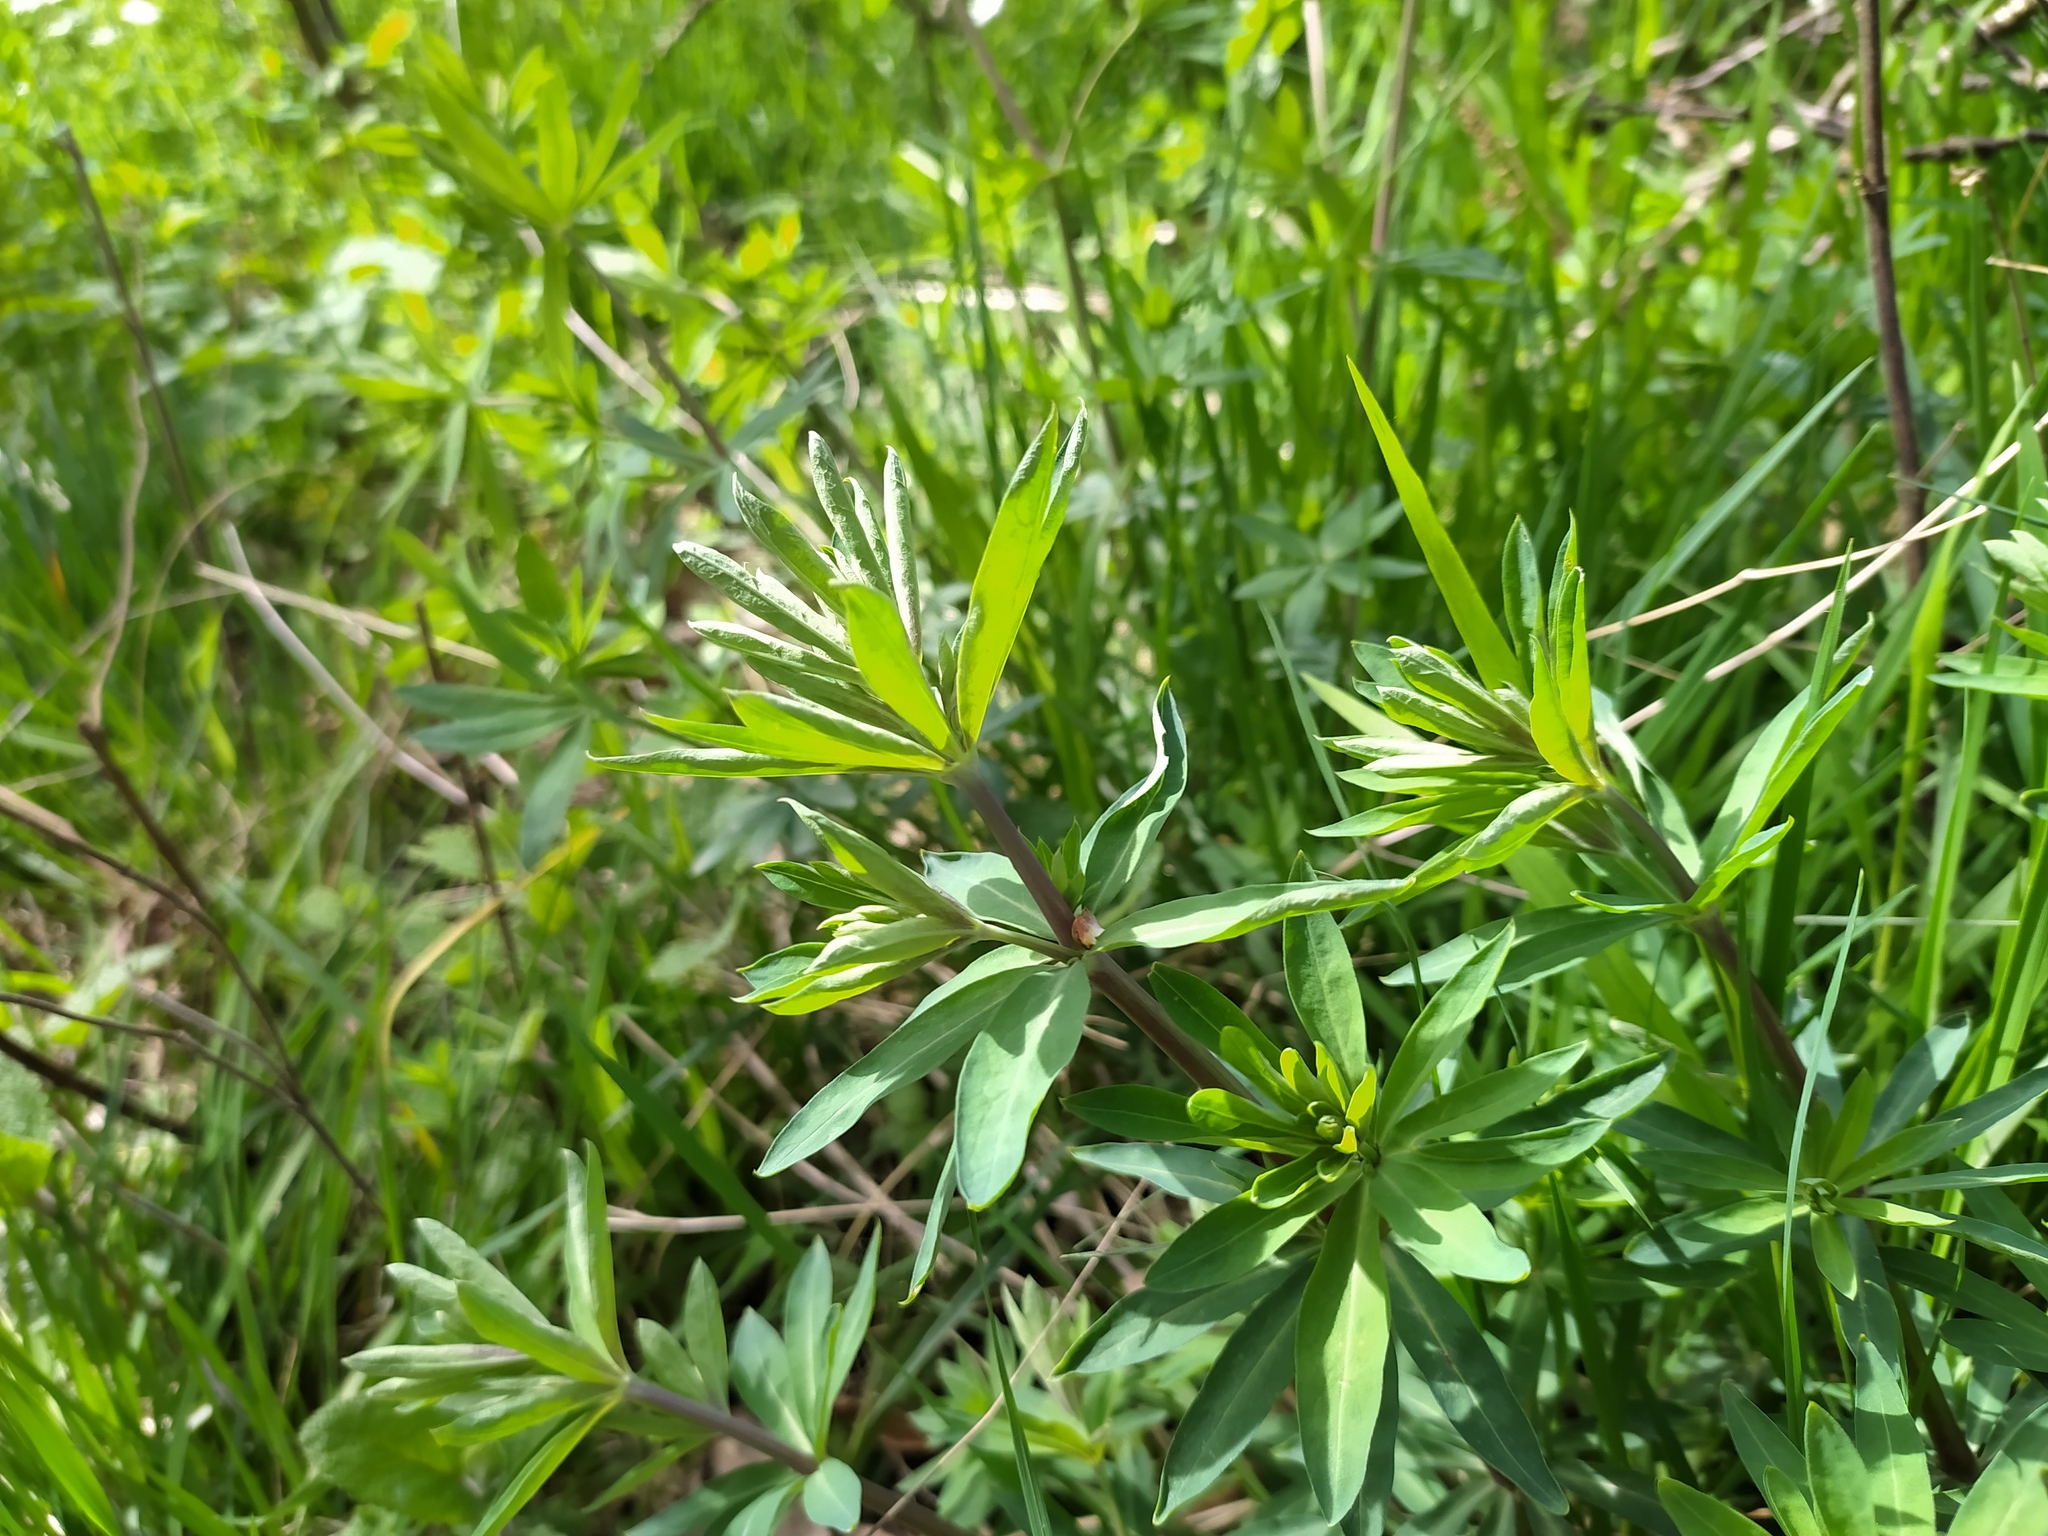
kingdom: Plantae
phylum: Tracheophyta
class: Magnoliopsida
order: Gentianales
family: Rubiaceae
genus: Galium
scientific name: Galium sylvaticum
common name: Wood bedstraw
